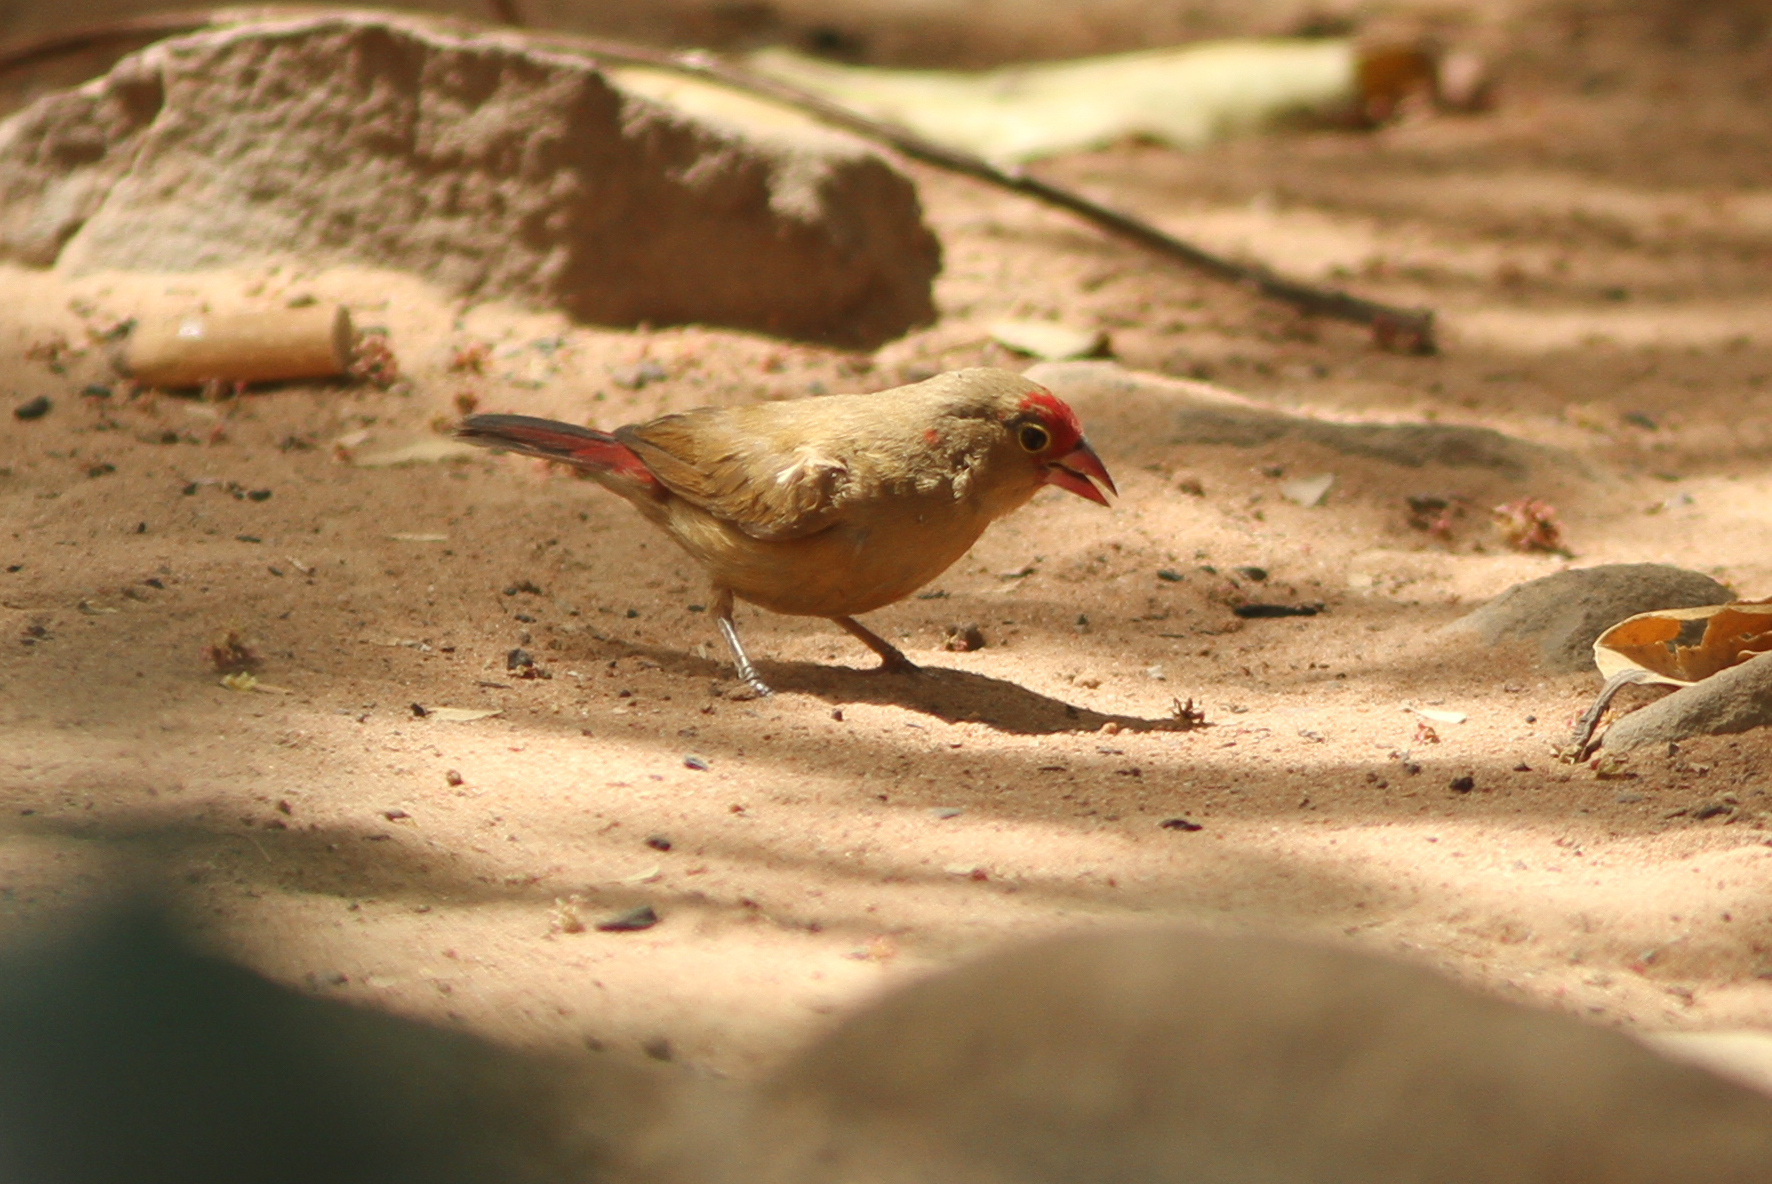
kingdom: Animalia
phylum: Chordata
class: Aves
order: Passeriformes
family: Estrildidae
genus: Lagonosticta
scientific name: Lagonosticta senegala
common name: Red-billed firefinch
